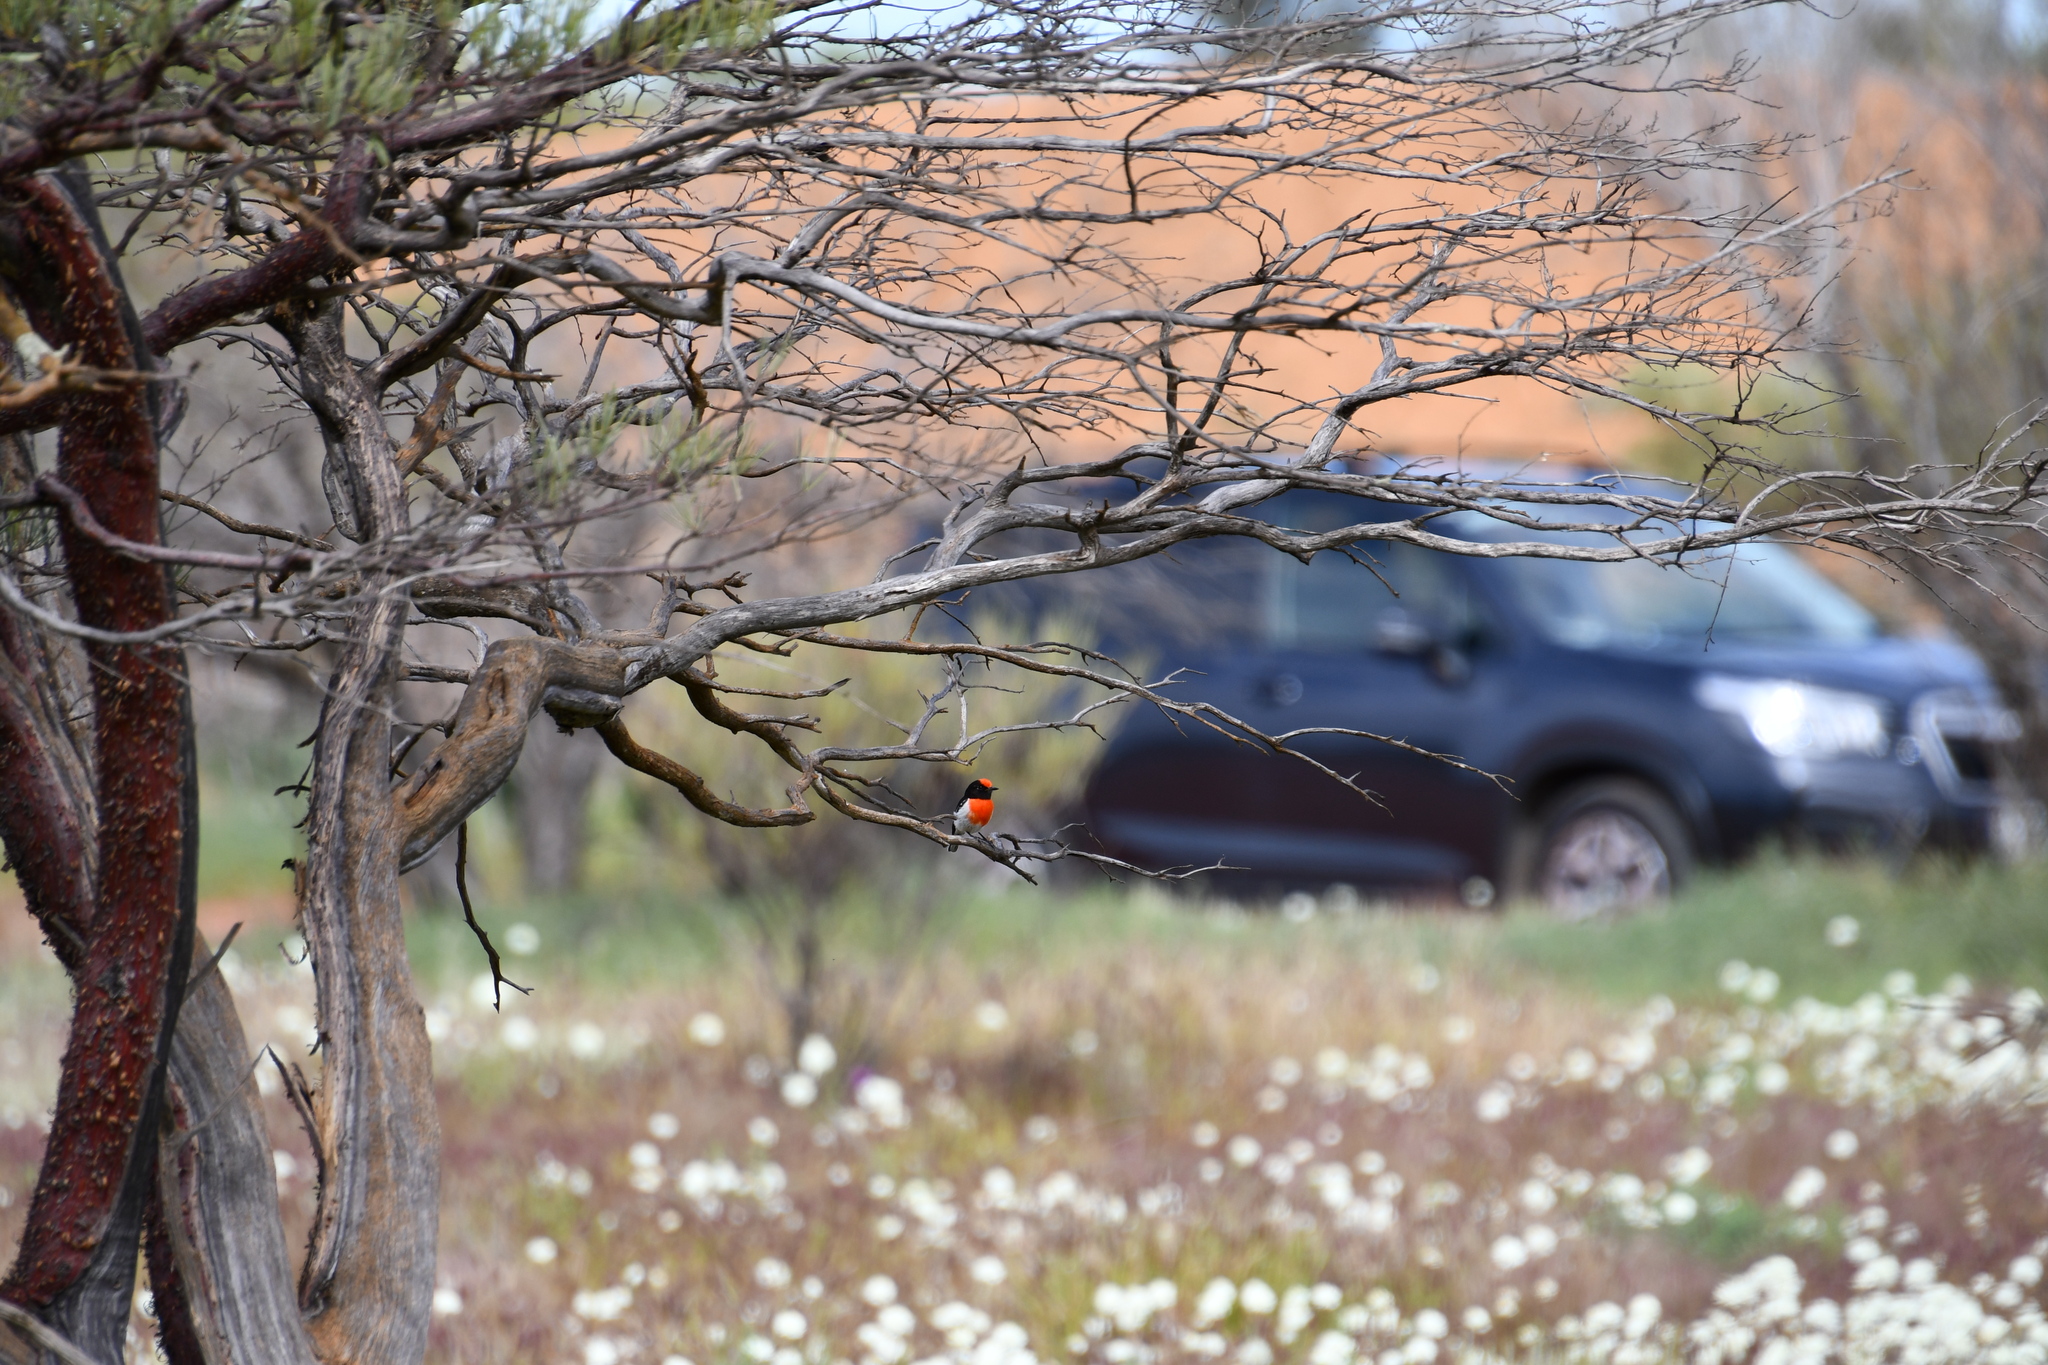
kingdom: Animalia
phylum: Chordata
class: Aves
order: Passeriformes
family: Petroicidae
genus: Petroica
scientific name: Petroica goodenovii
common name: Red-capped robin
